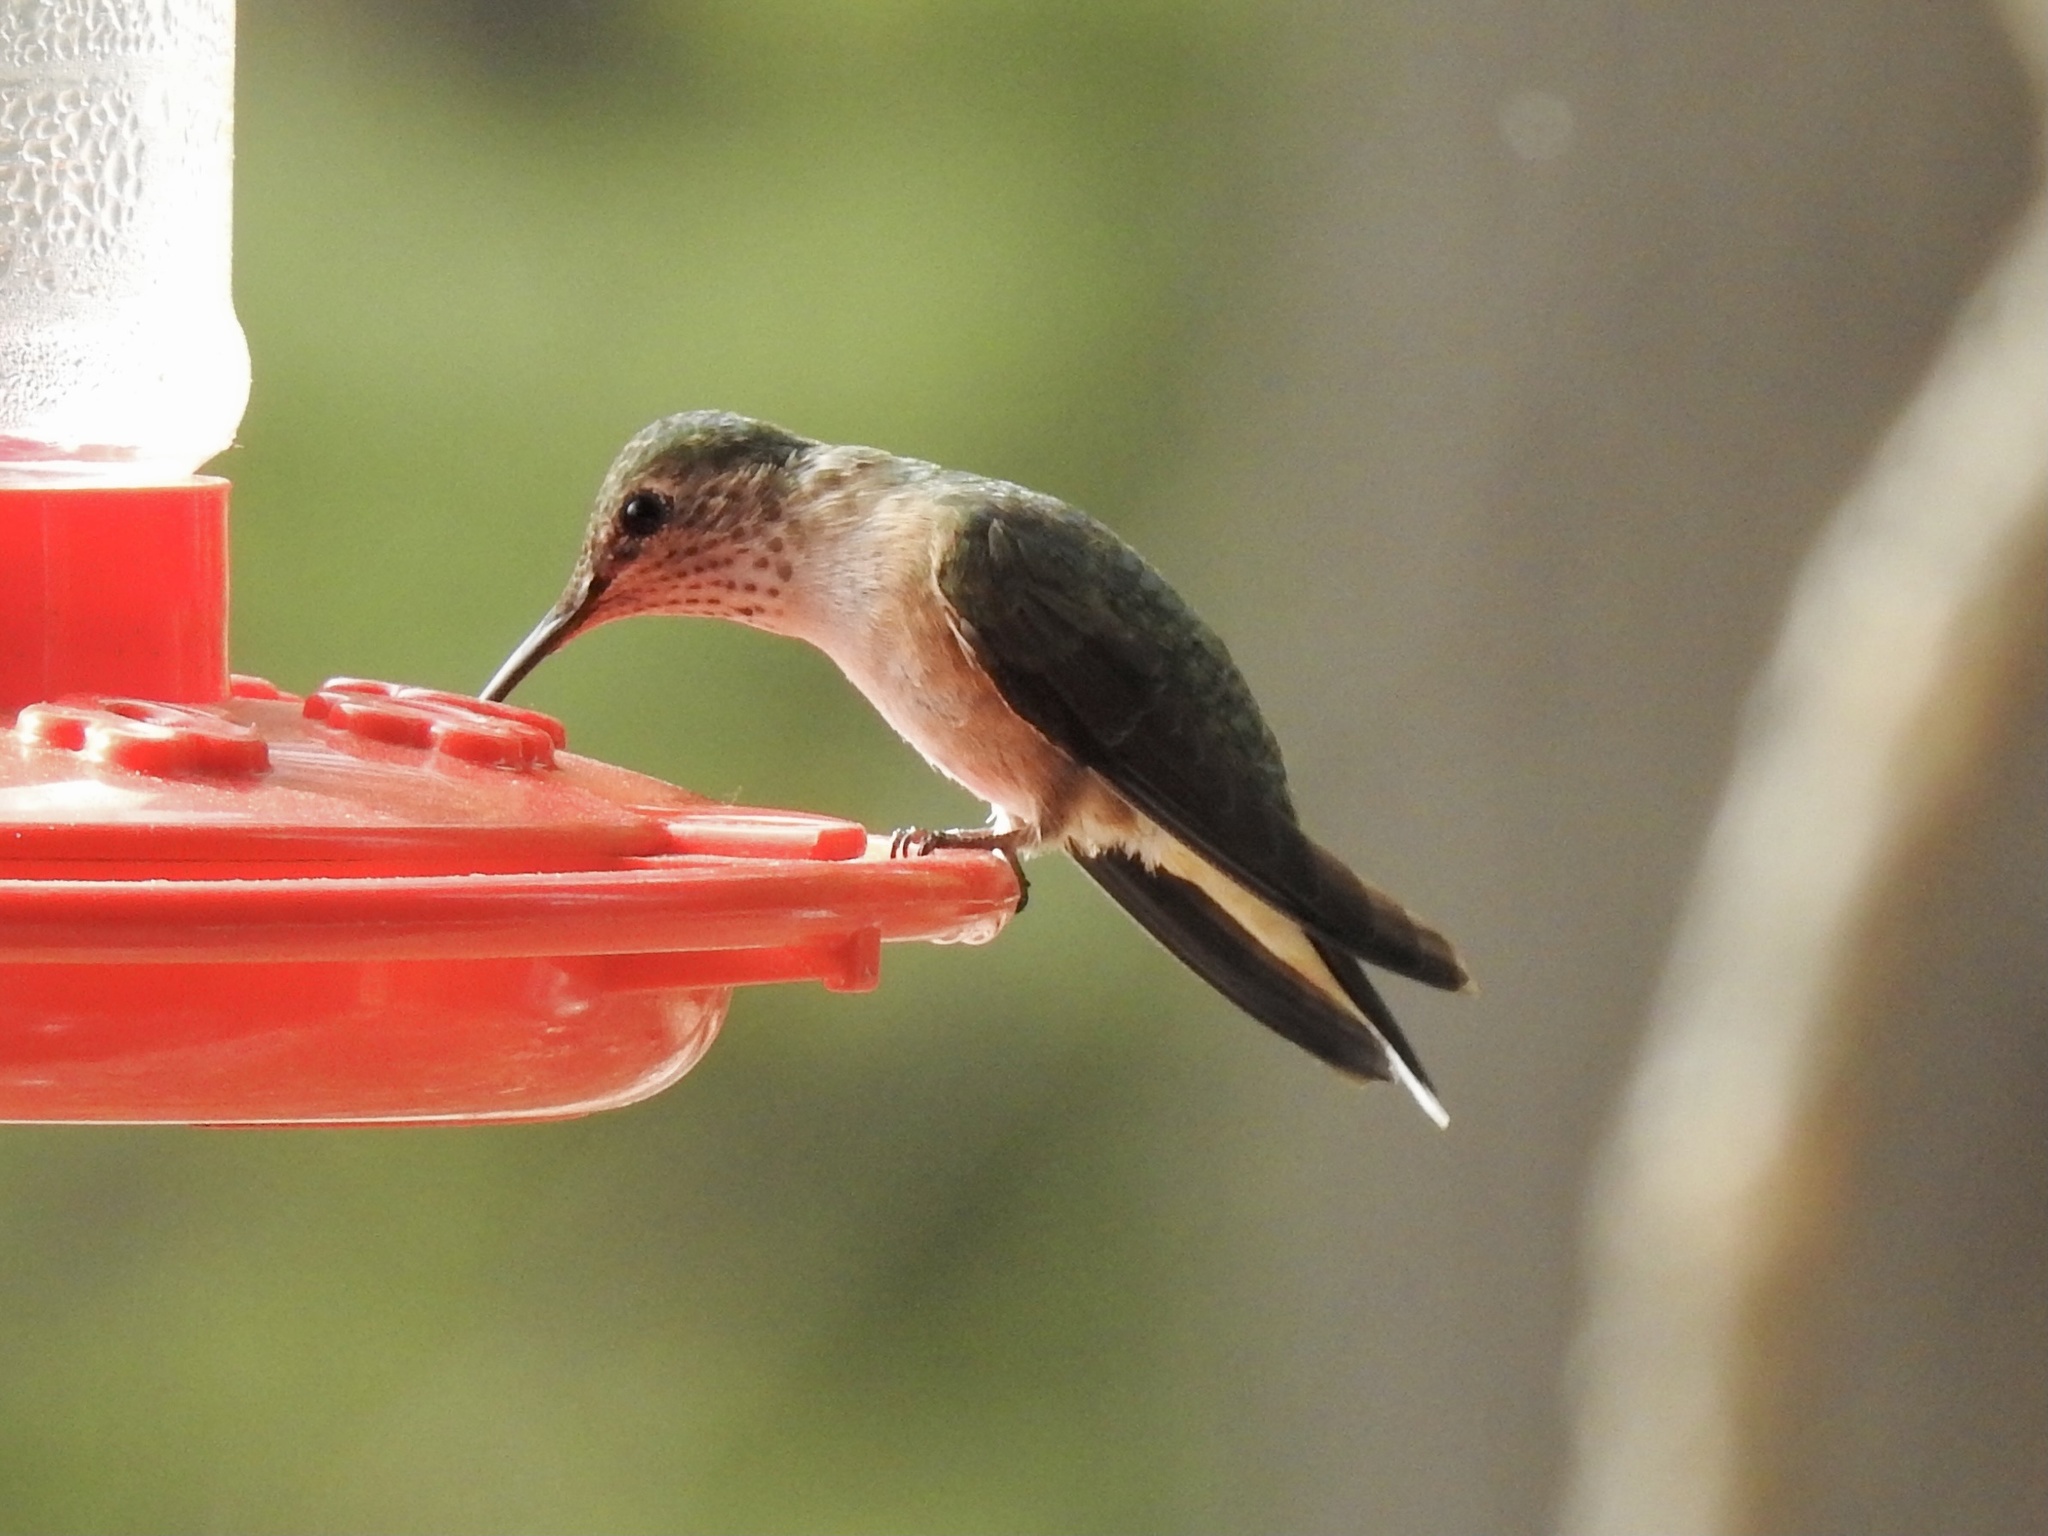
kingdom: Animalia
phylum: Chordata
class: Aves
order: Apodiformes
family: Trochilidae
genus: Selasphorus
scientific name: Selasphorus platycercus
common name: Broad-tailed hummingbird
